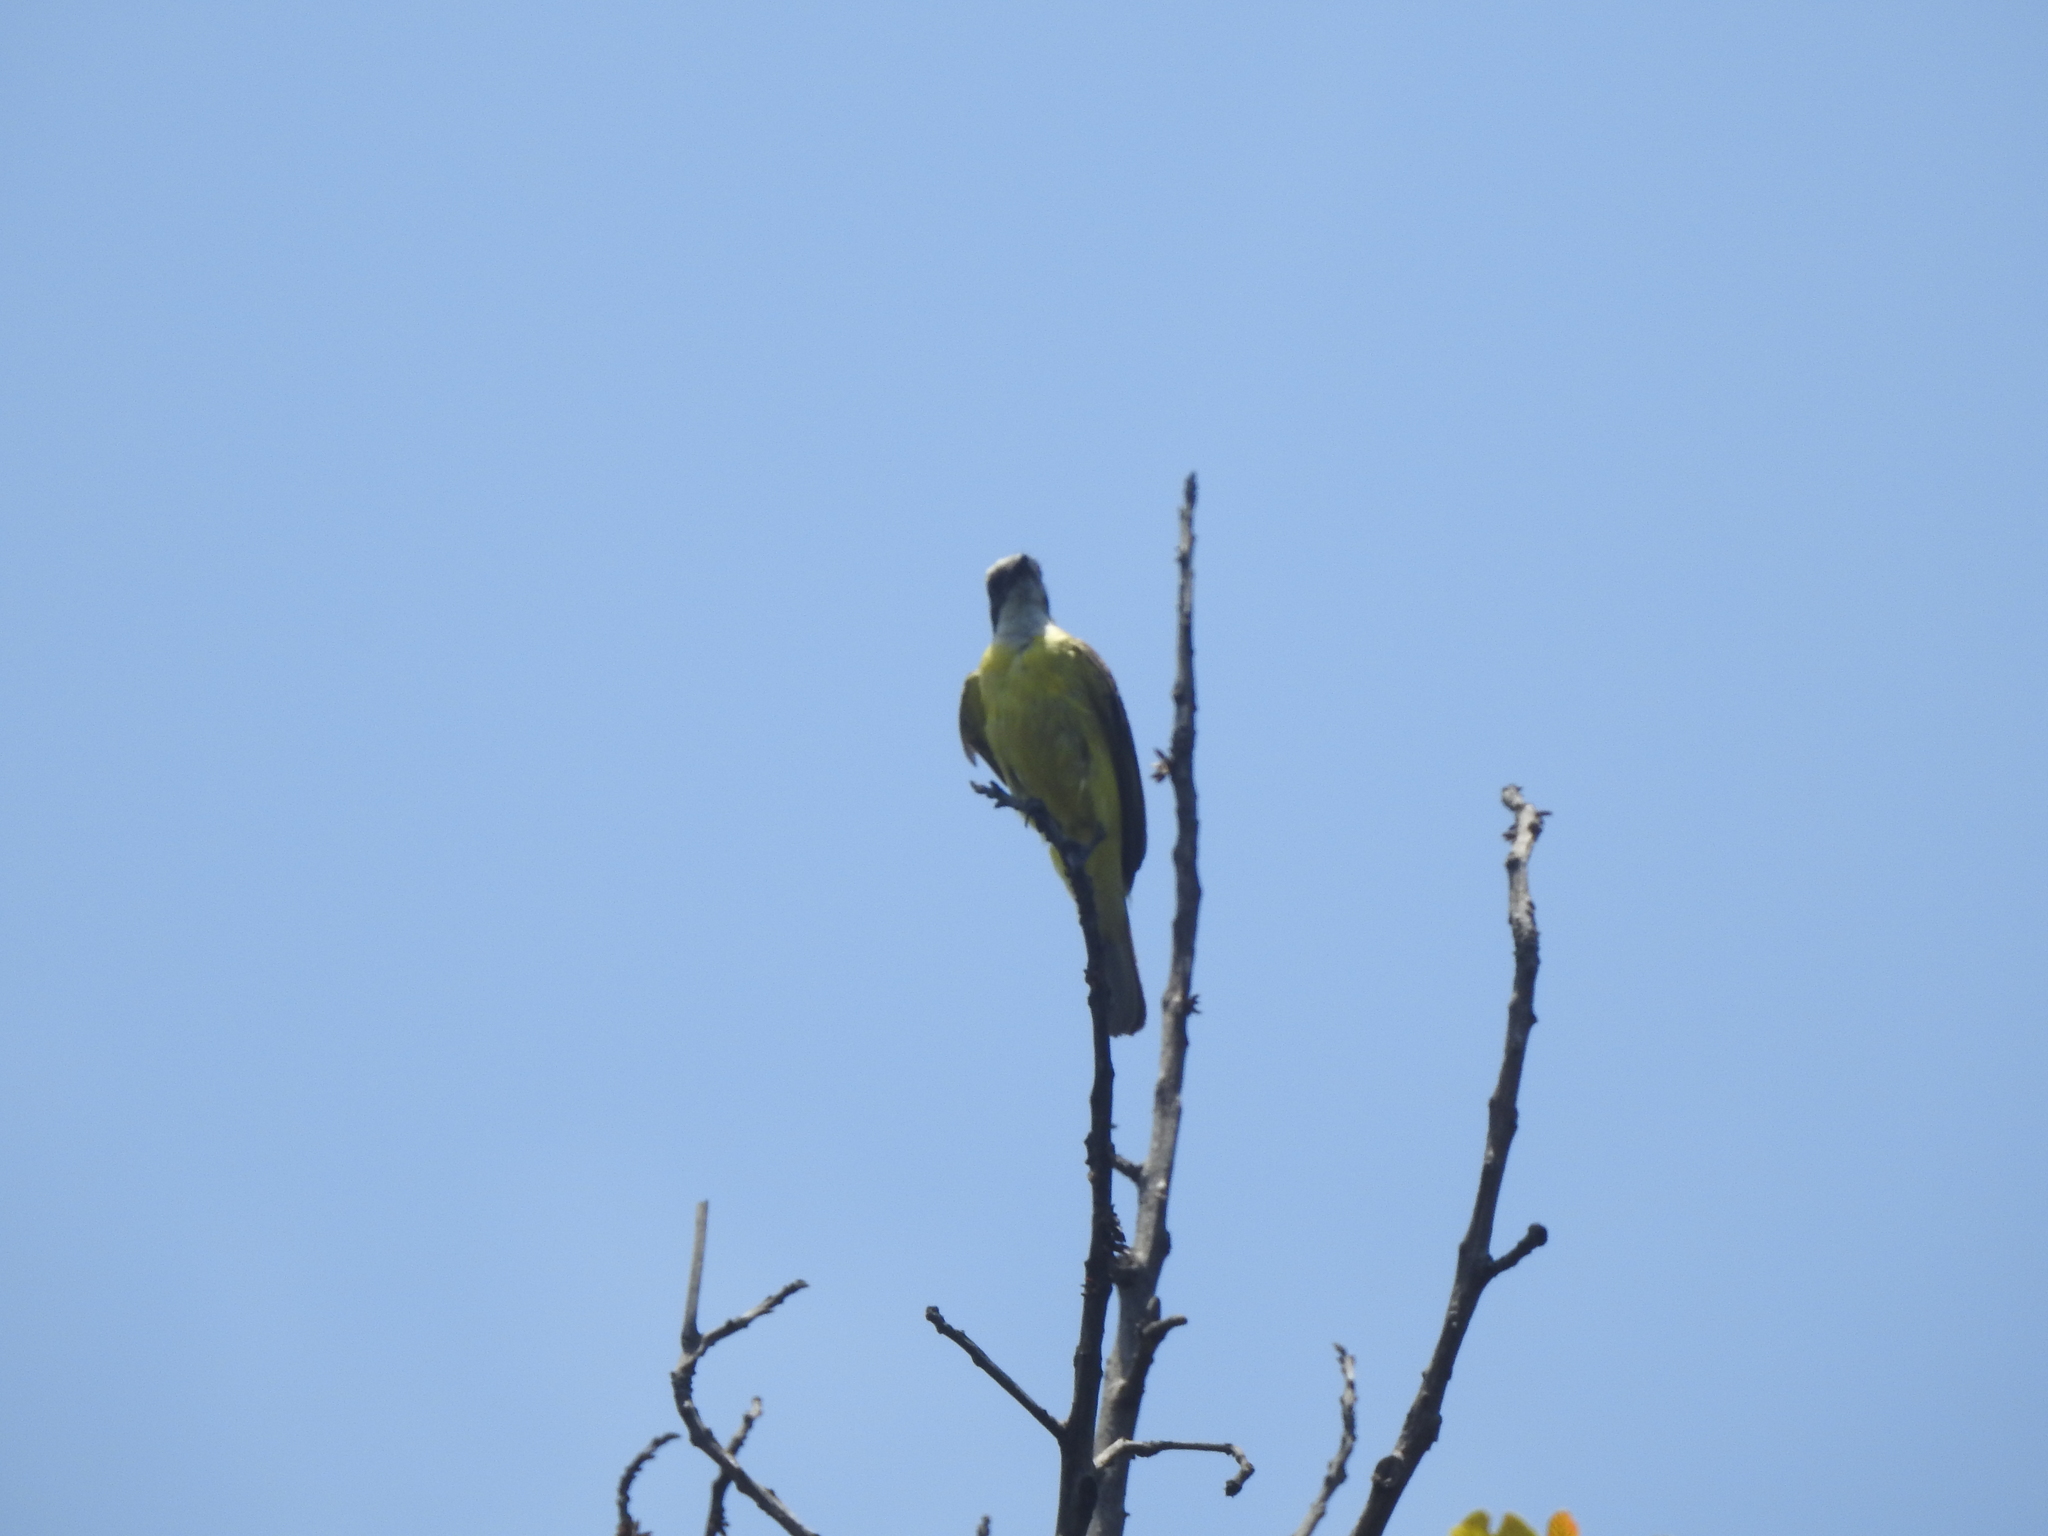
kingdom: Animalia
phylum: Chordata
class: Aves
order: Passeriformes
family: Tyrannidae
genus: Myiozetetes
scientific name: Myiozetetes similis
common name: Social flycatcher
